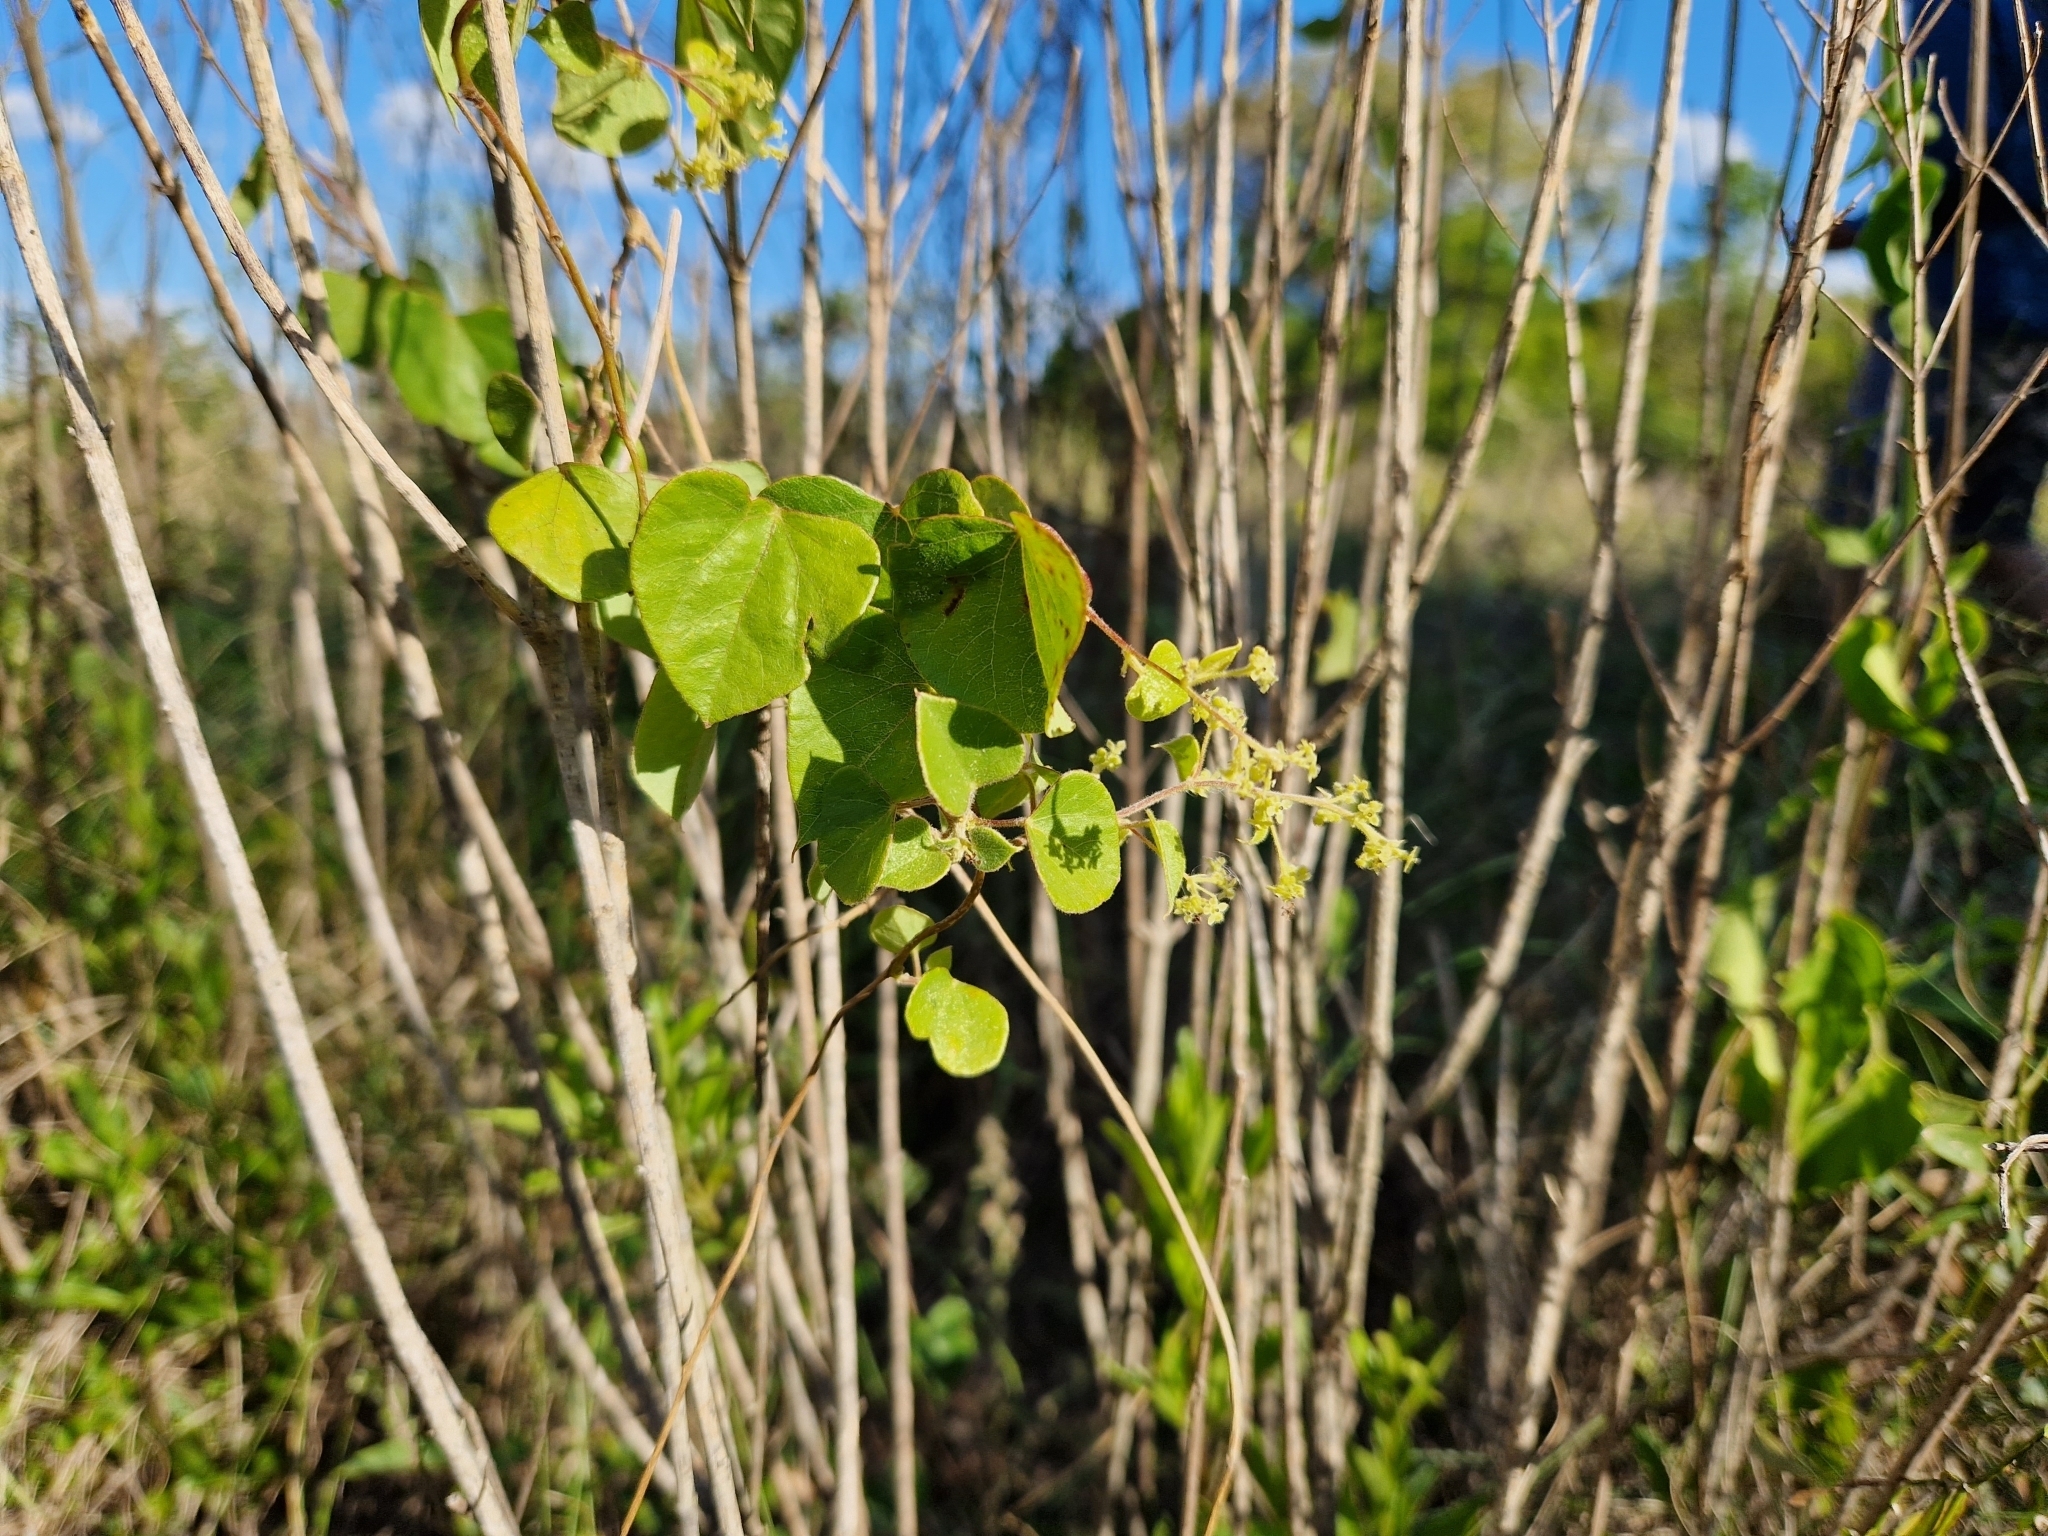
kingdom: Plantae
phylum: Tracheophyta
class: Magnoliopsida
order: Ranunculales
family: Menispermaceae
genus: Cissampelos
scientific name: Cissampelos pareira
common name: Velvetleaf
